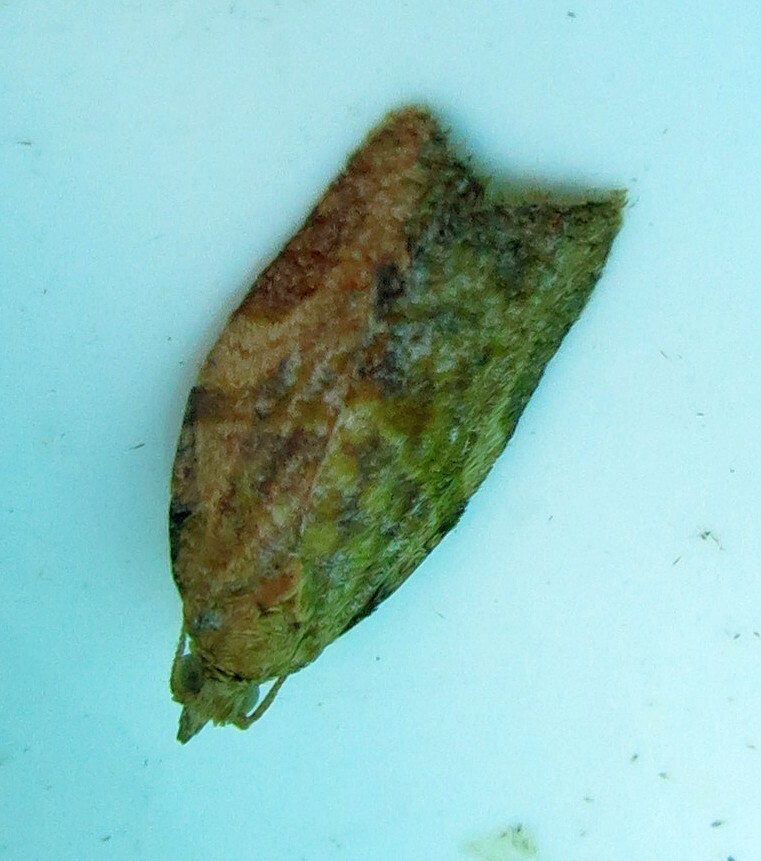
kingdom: Animalia
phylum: Arthropoda
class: Insecta
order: Lepidoptera
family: Tortricidae
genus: Epiphyas
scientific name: Epiphyas postvittana
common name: Light brown apple moth
